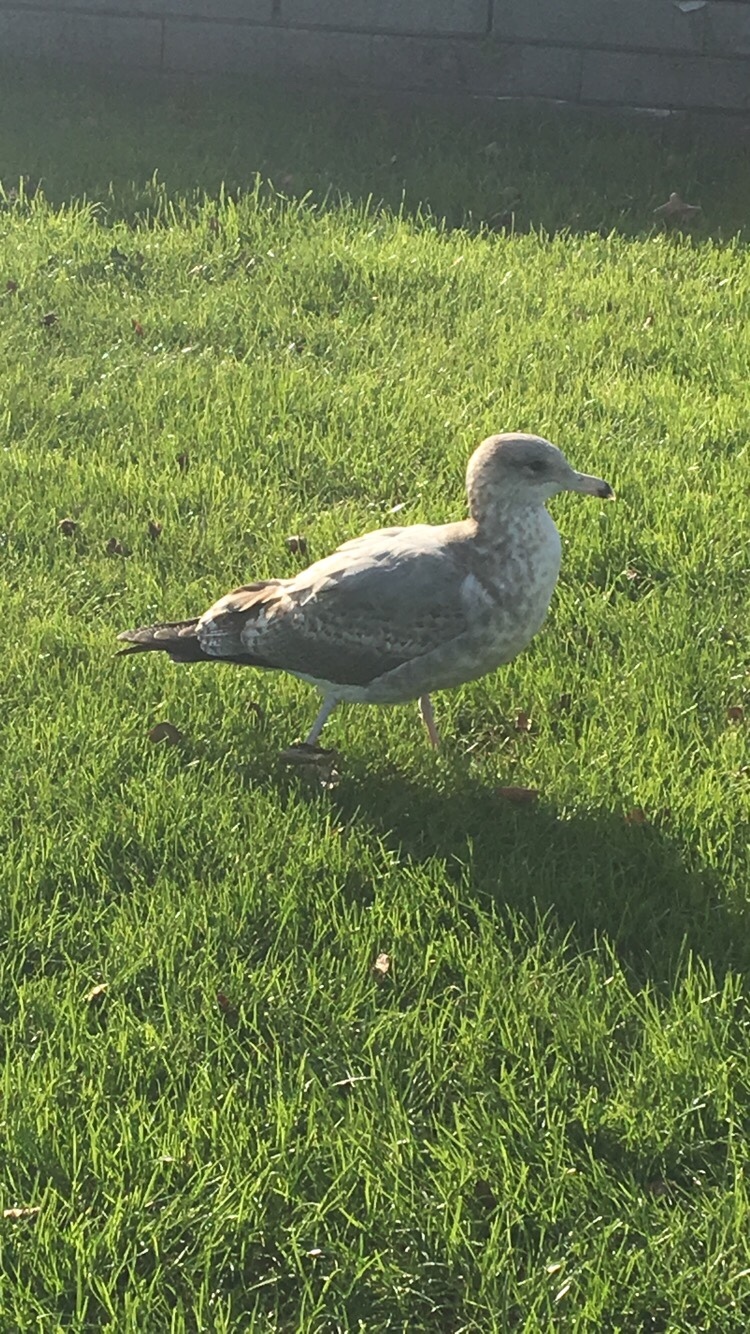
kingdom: Animalia
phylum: Chordata
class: Aves
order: Charadriiformes
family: Laridae
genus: Larus
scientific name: Larus delawarensis
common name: Ring-billed gull
